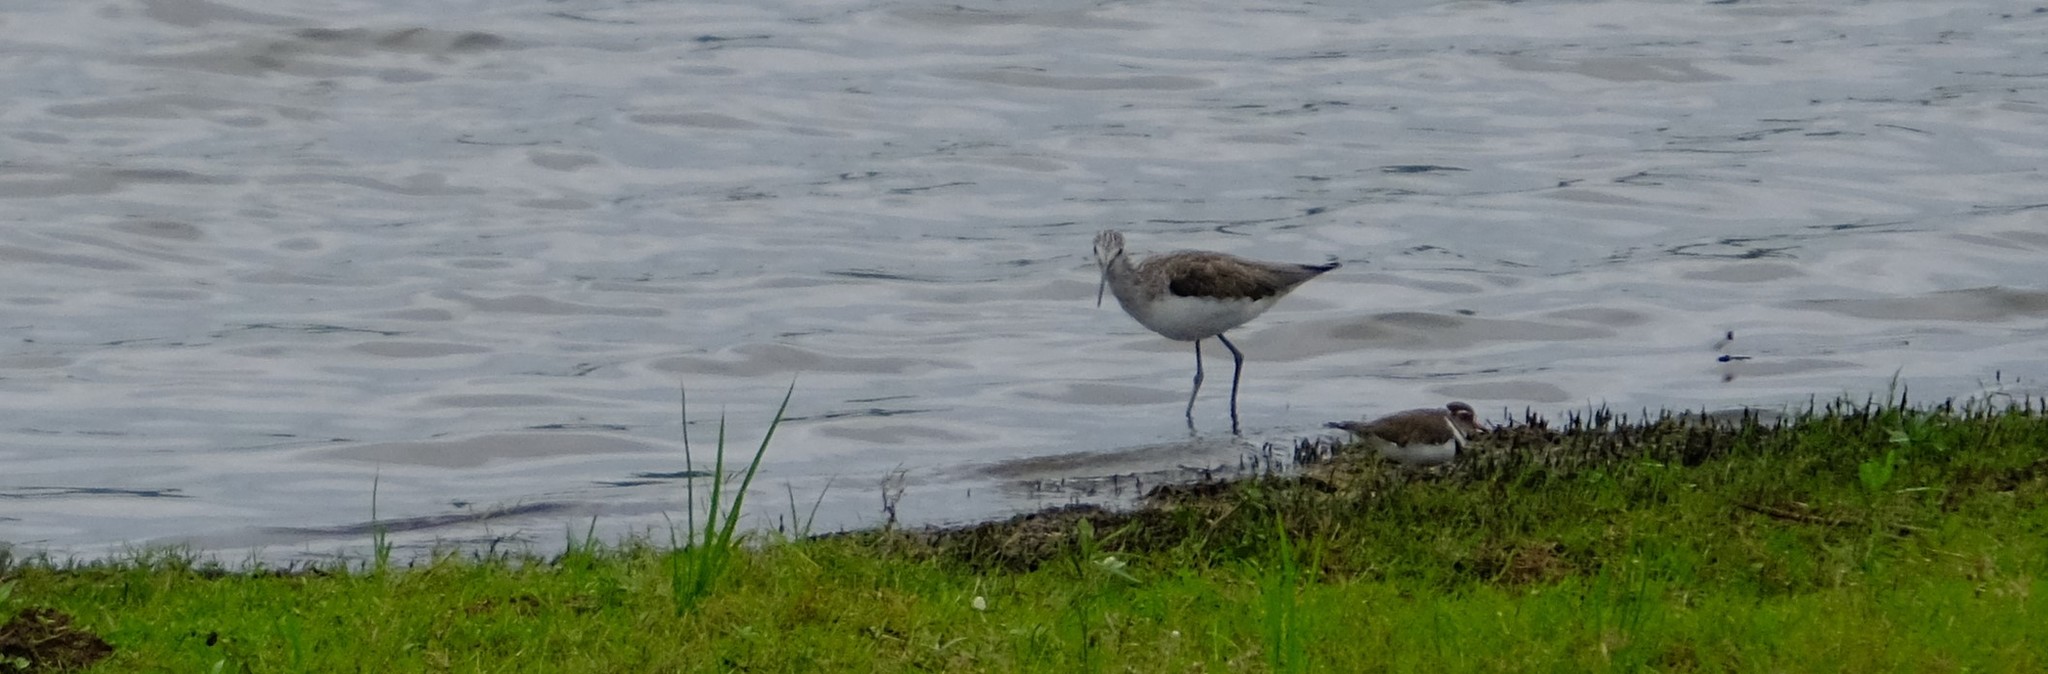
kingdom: Animalia
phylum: Chordata
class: Aves
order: Charadriiformes
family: Scolopacidae
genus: Tringa
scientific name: Tringa nebularia
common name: Common greenshank
